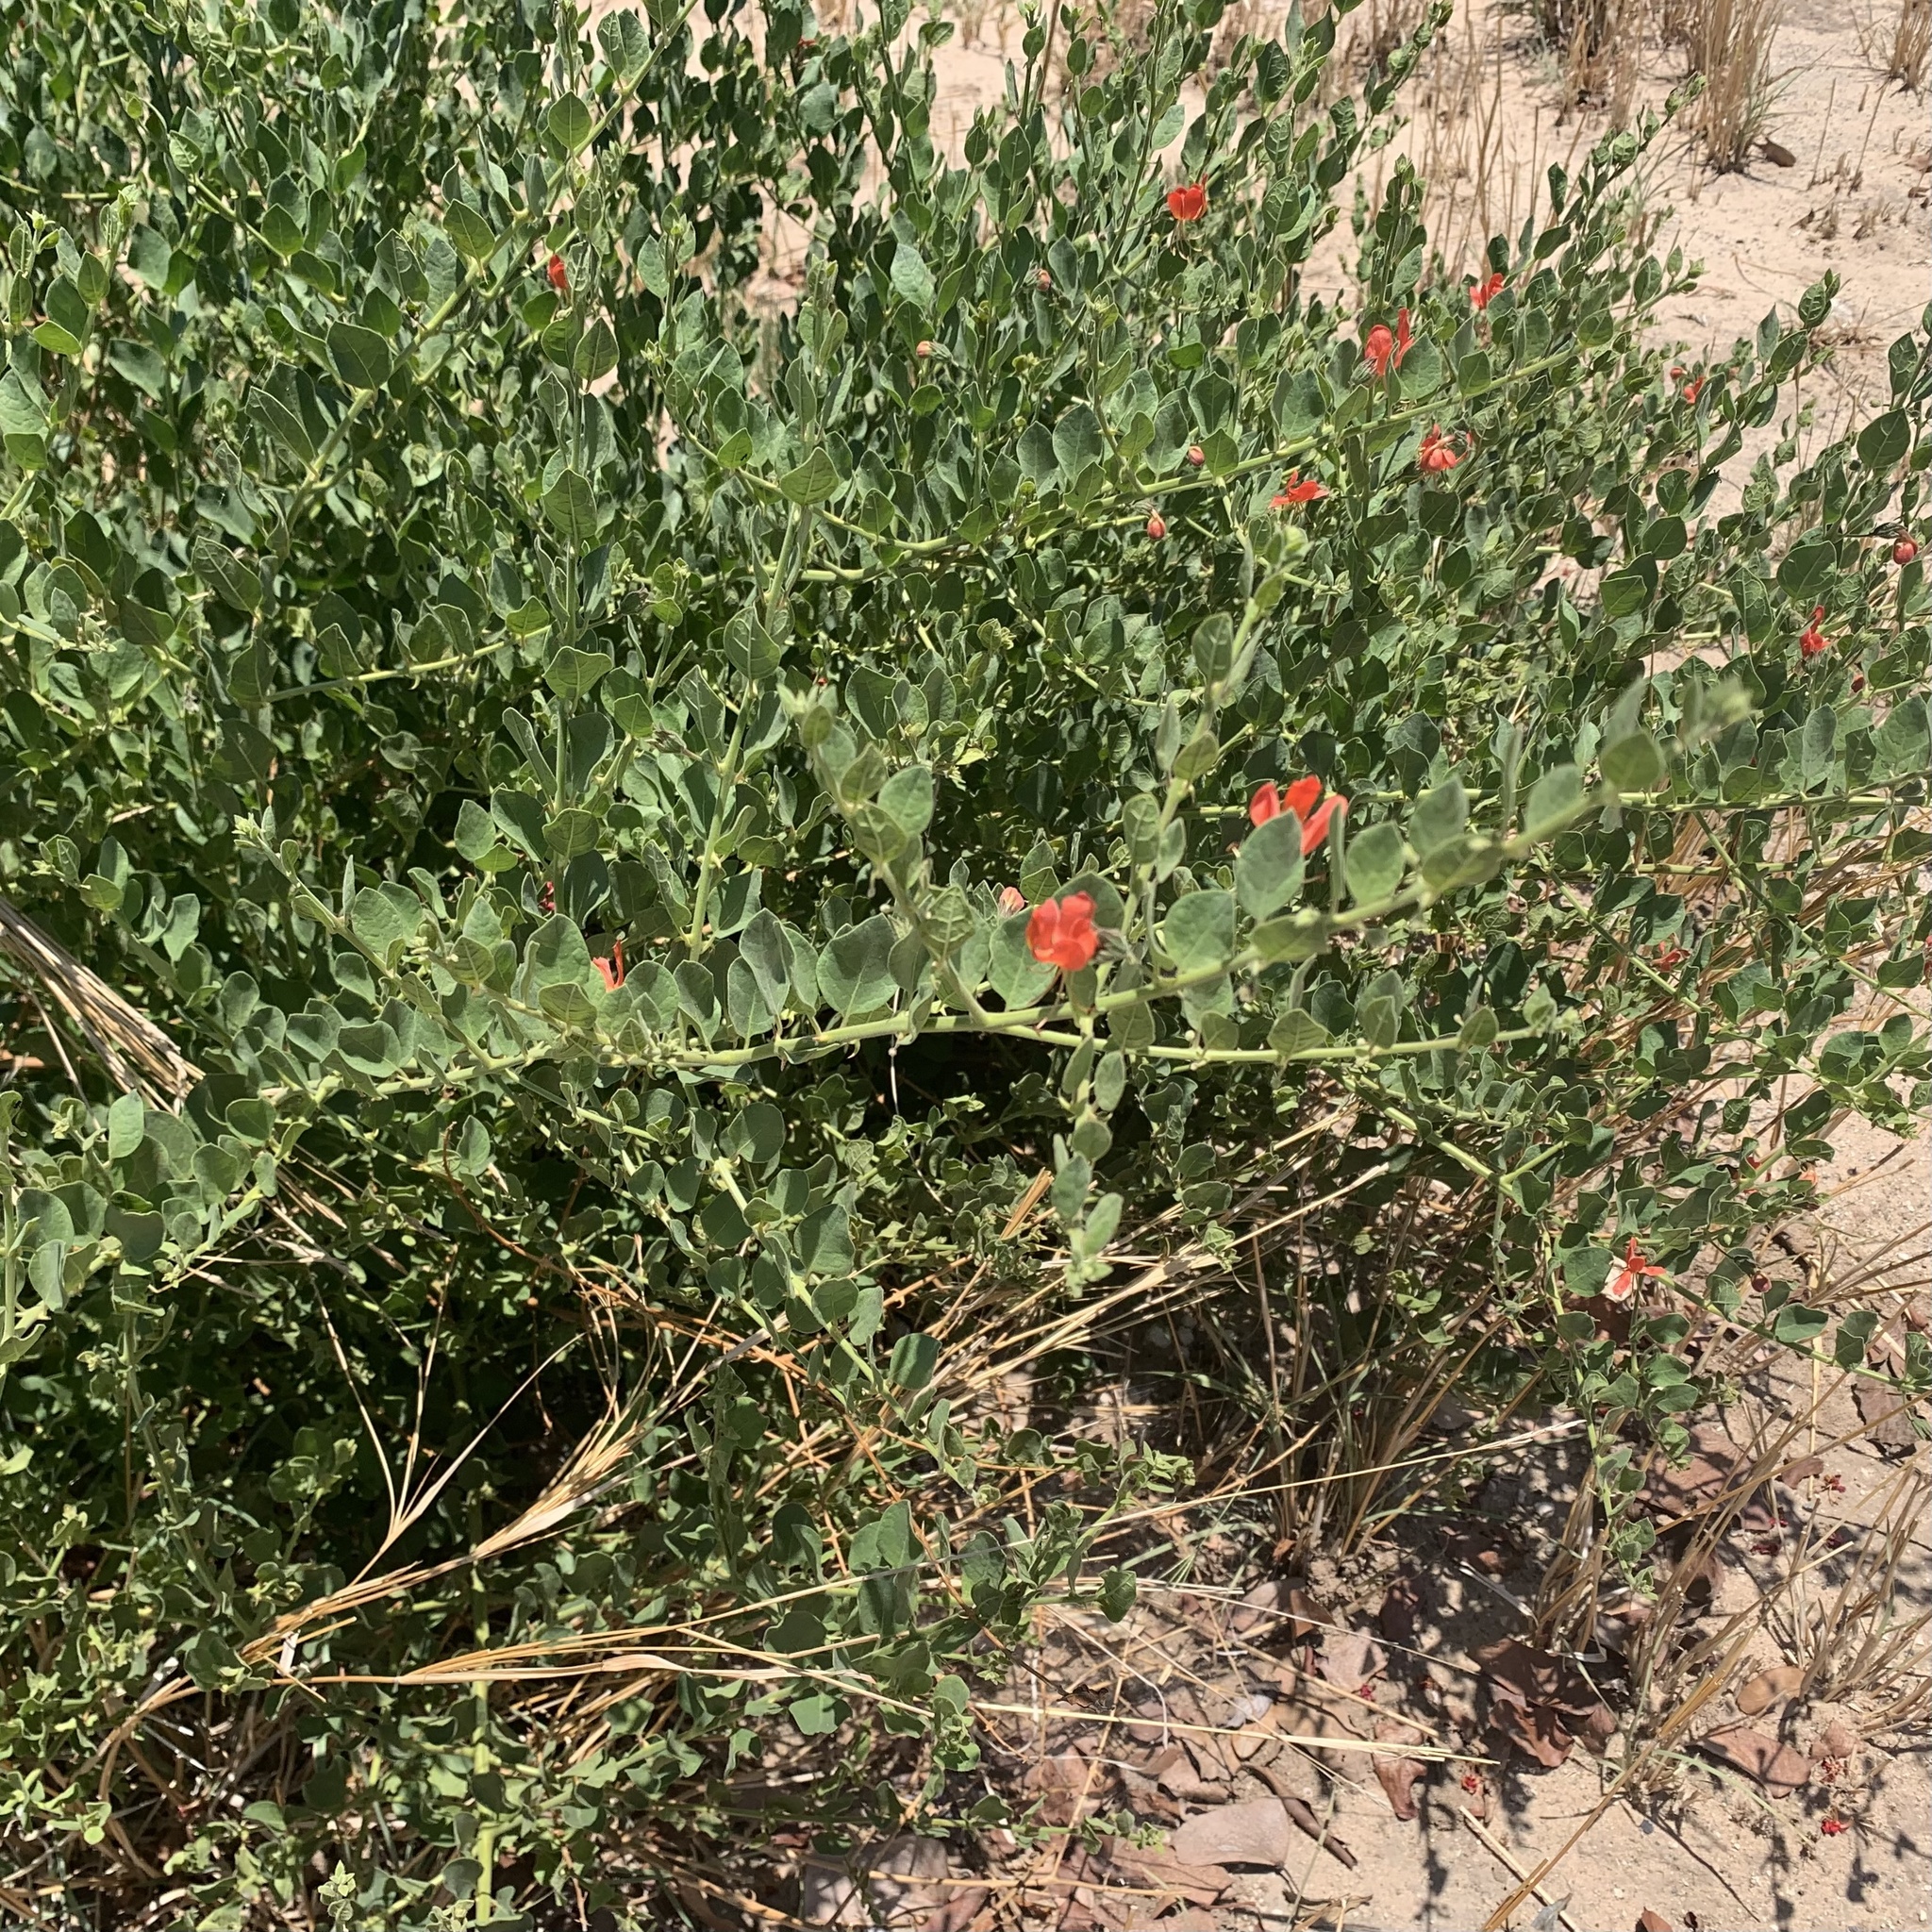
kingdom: Plantae
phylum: Tracheophyta
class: Magnoliopsida
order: Lamiales
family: Lamiaceae
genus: Kalaharia
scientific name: Kalaharia uncinata
